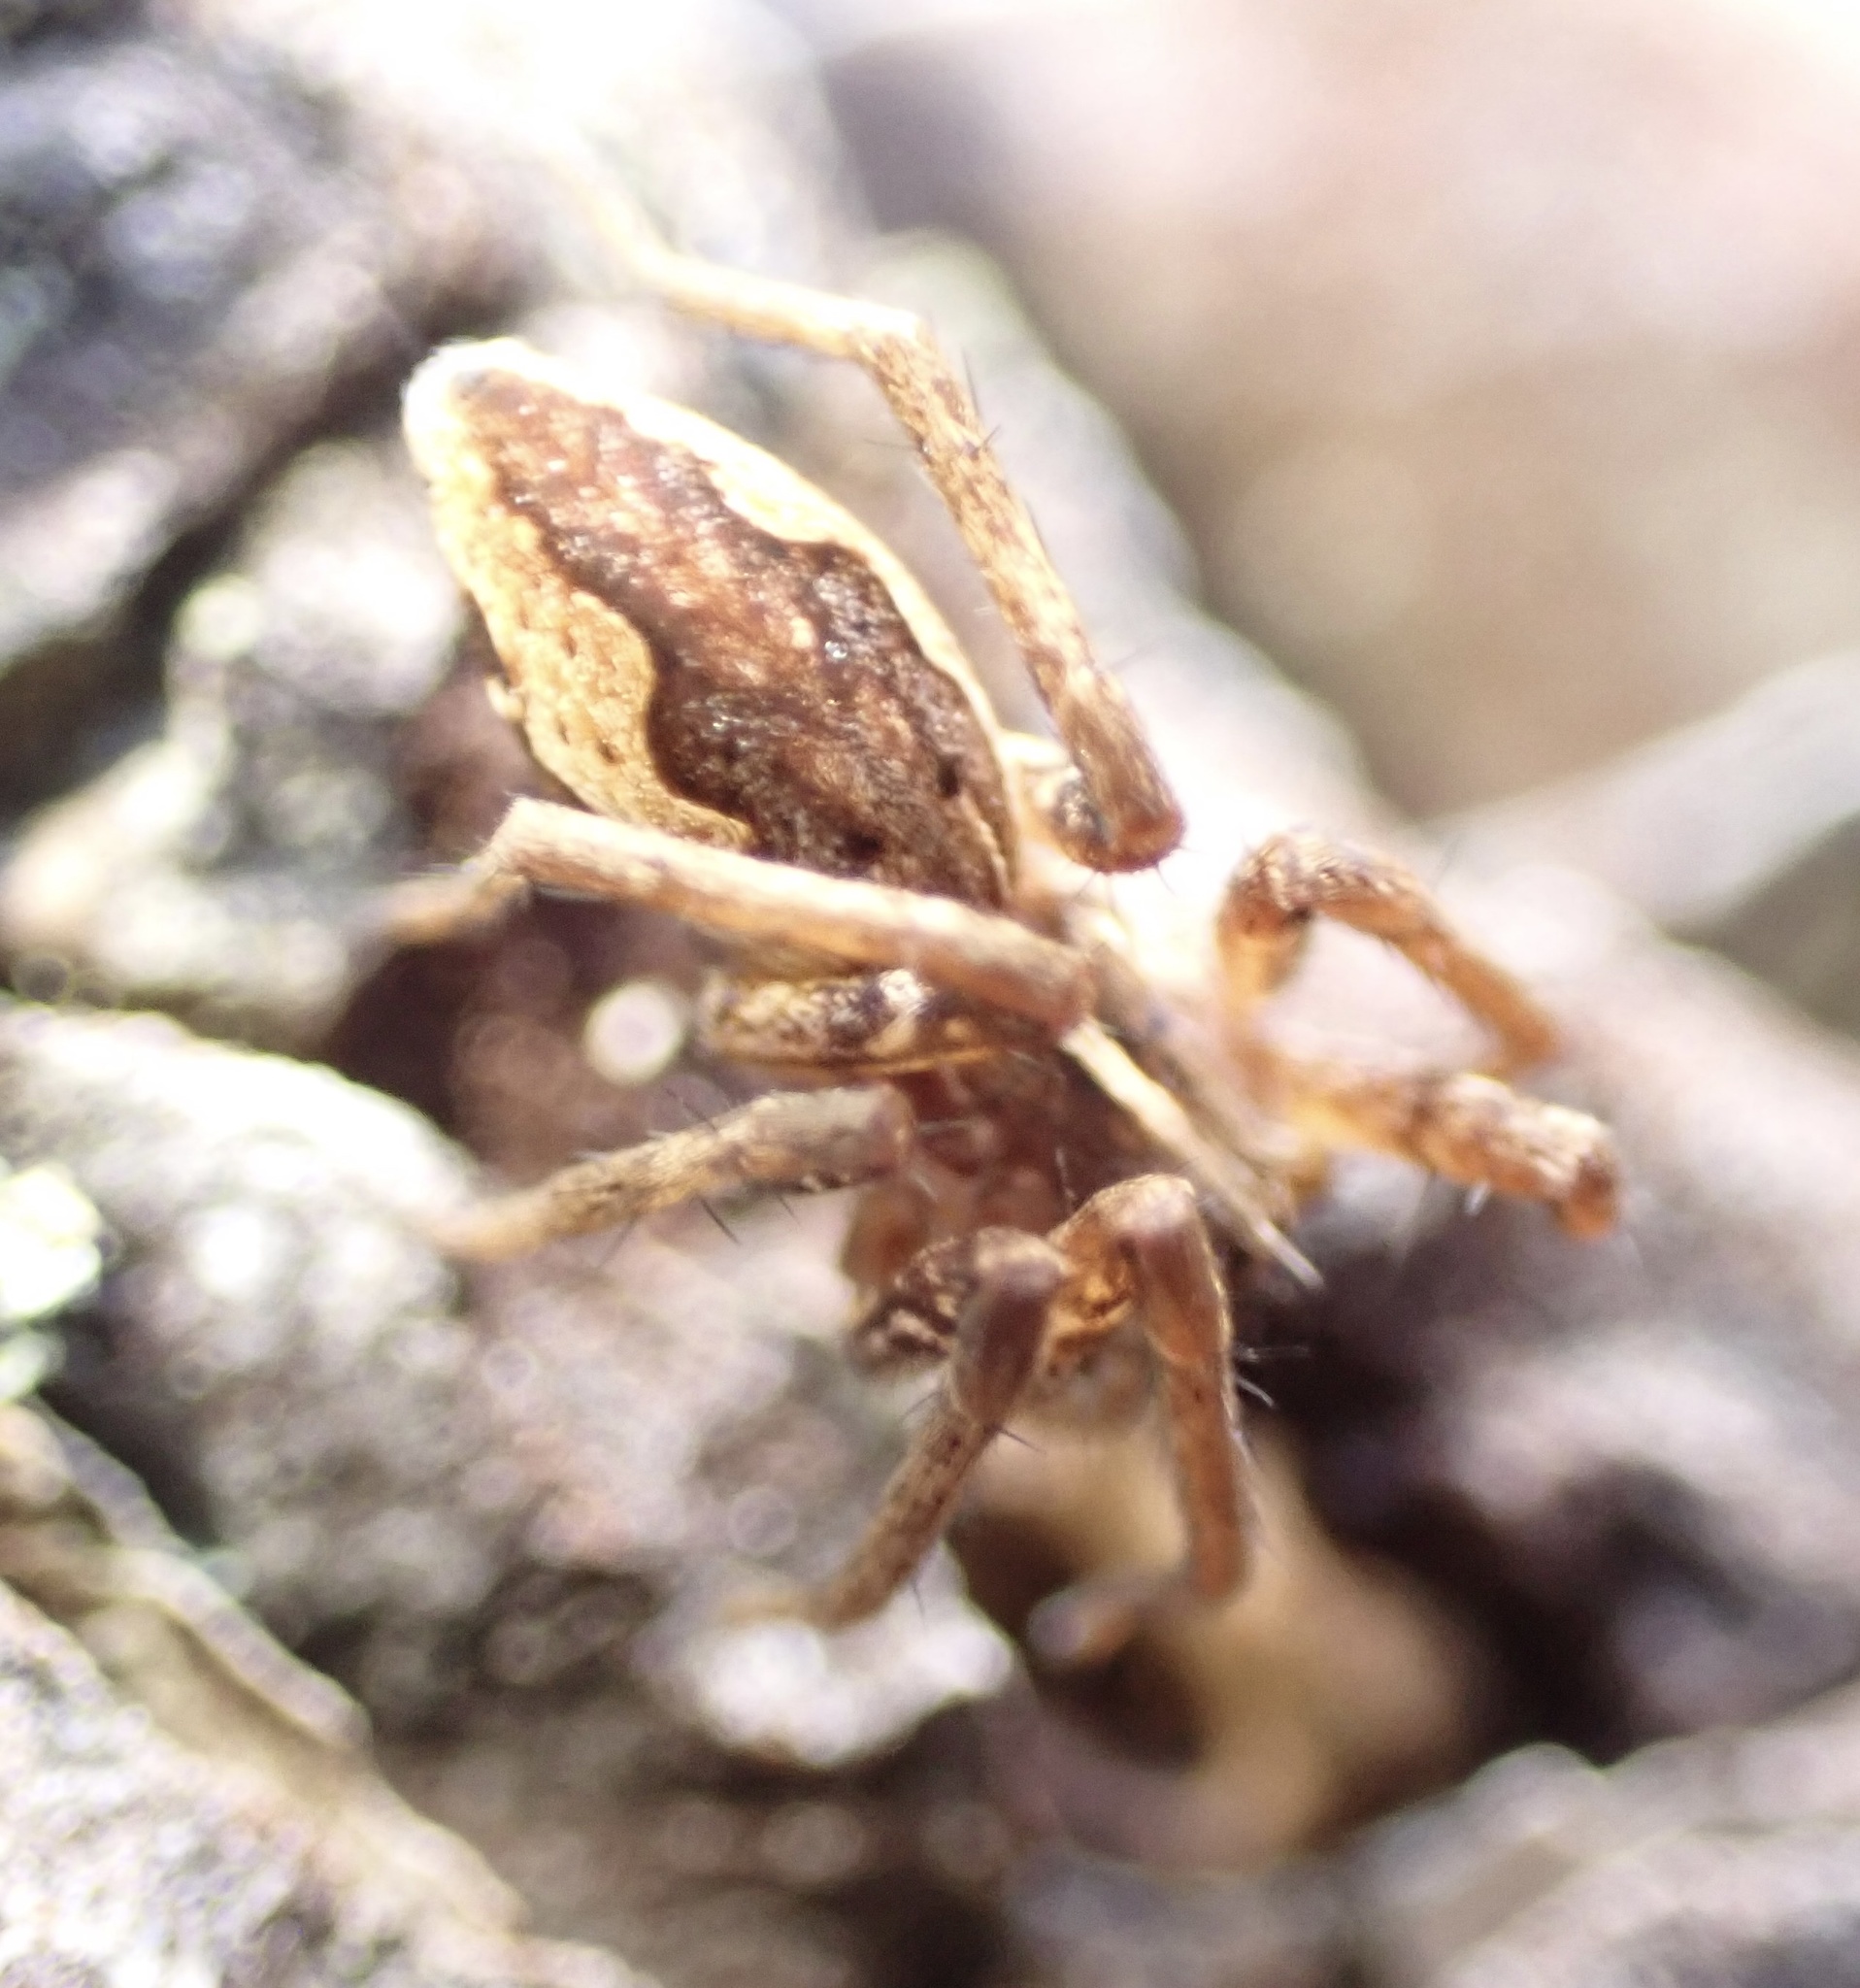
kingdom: Animalia
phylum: Arthropoda
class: Arachnida
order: Araneae
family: Pisauridae
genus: Pisaura
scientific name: Pisaura mirabilis
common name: Tent spider
